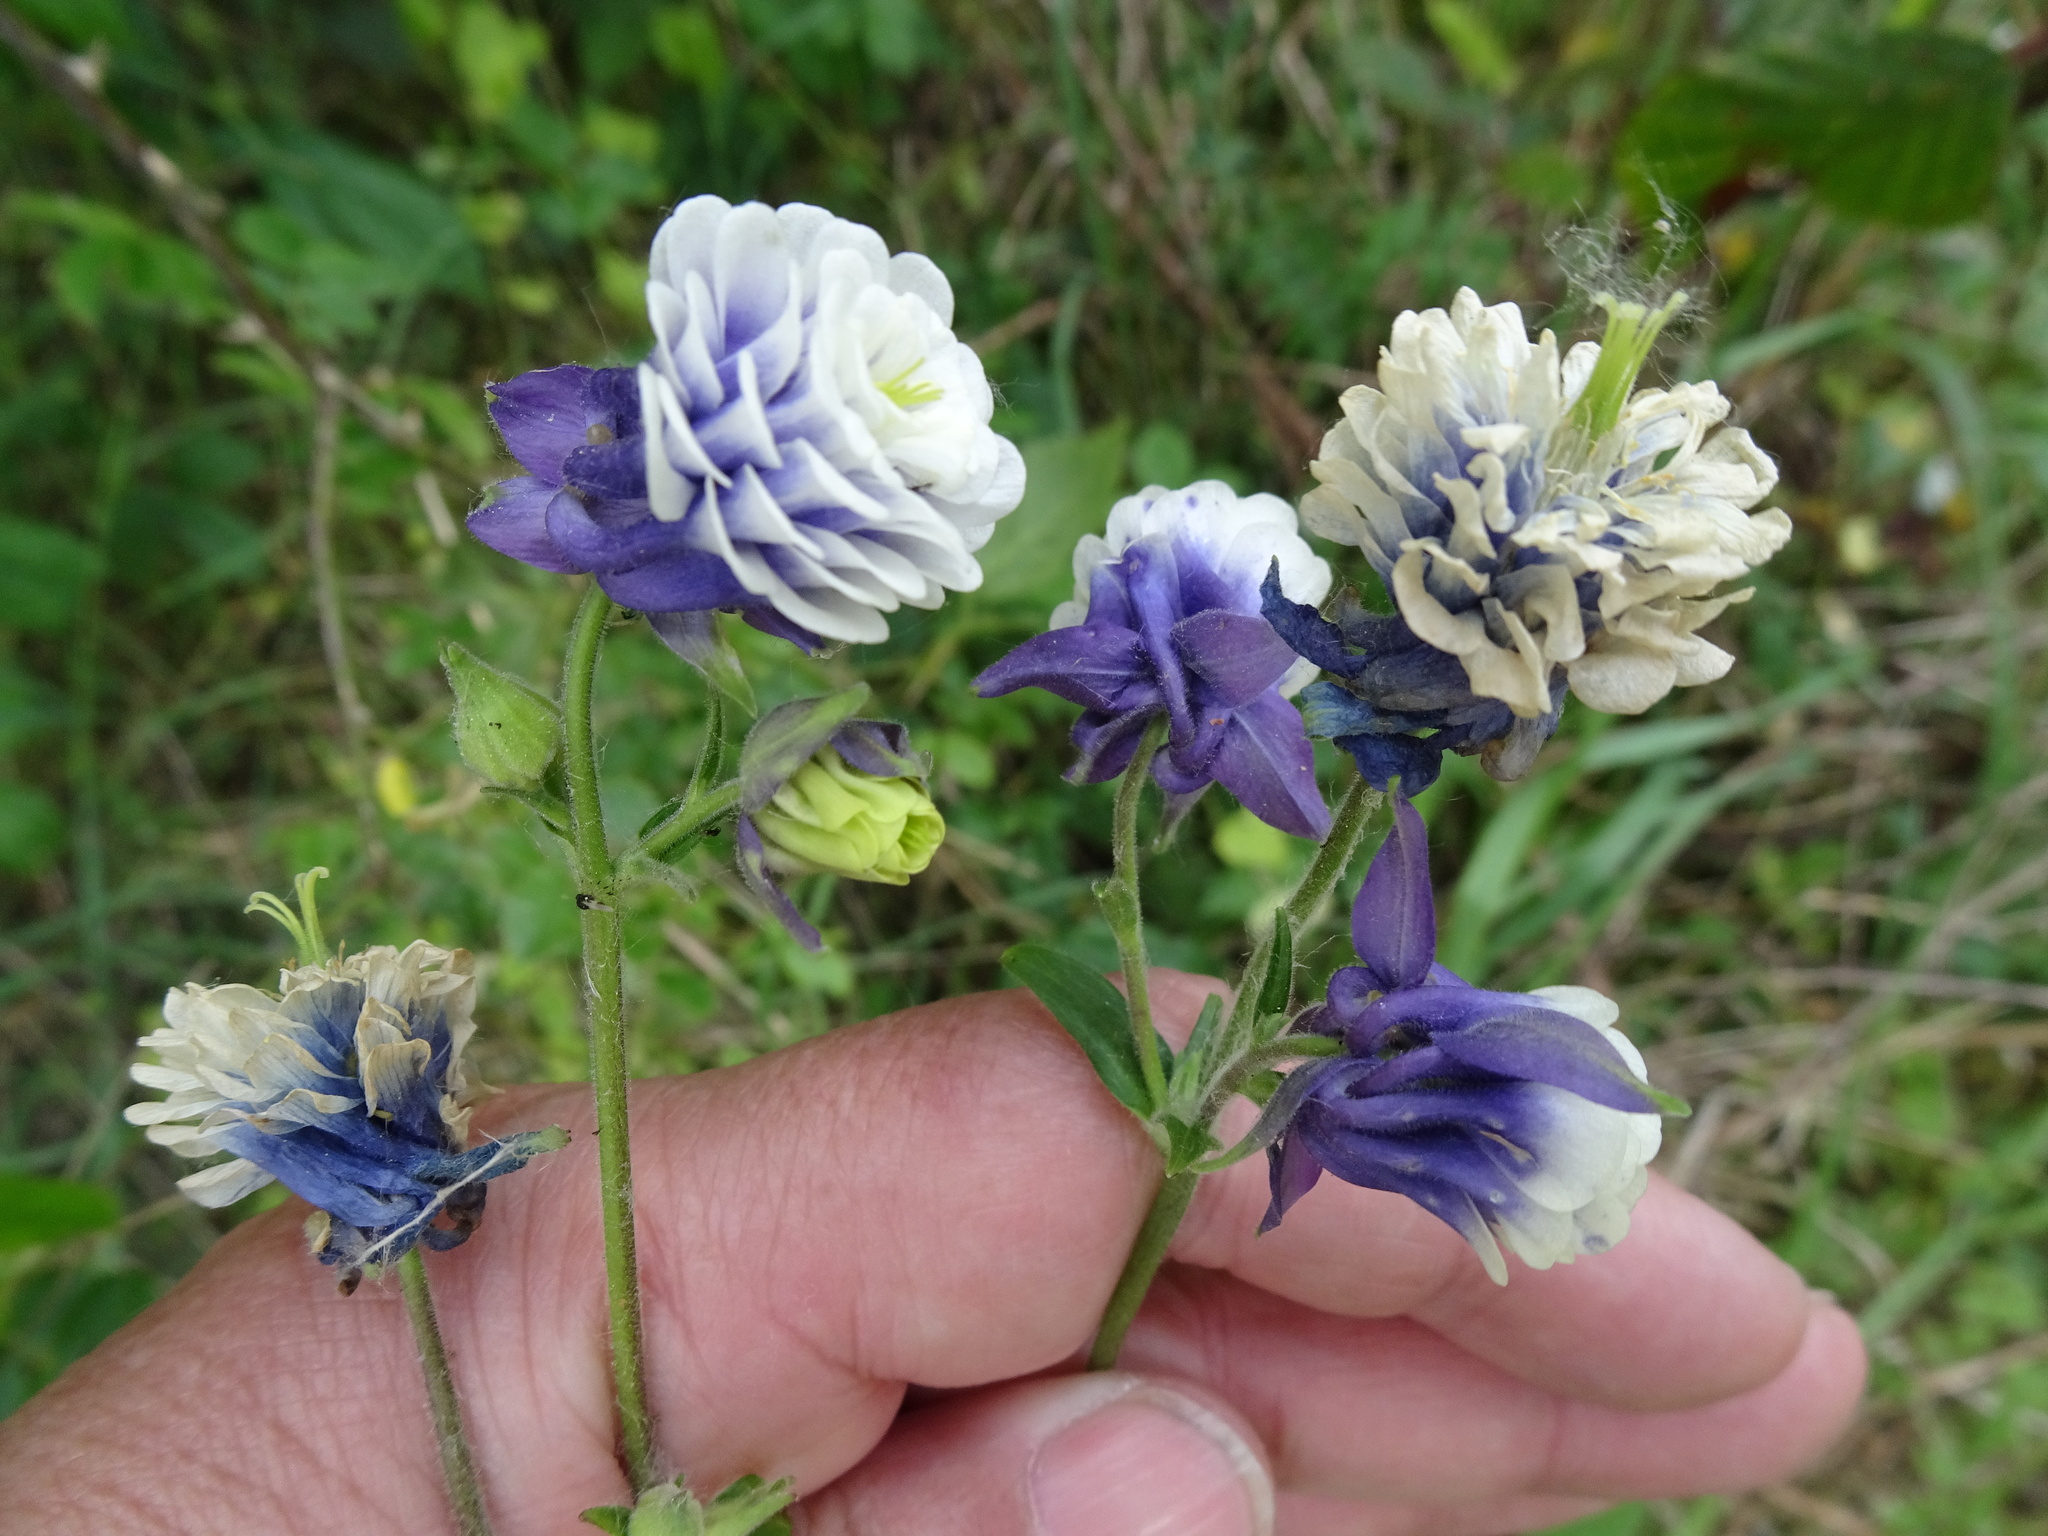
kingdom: Plantae
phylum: Tracheophyta
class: Magnoliopsida
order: Ranunculales
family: Ranunculaceae
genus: Aquilegia
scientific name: Aquilegia
